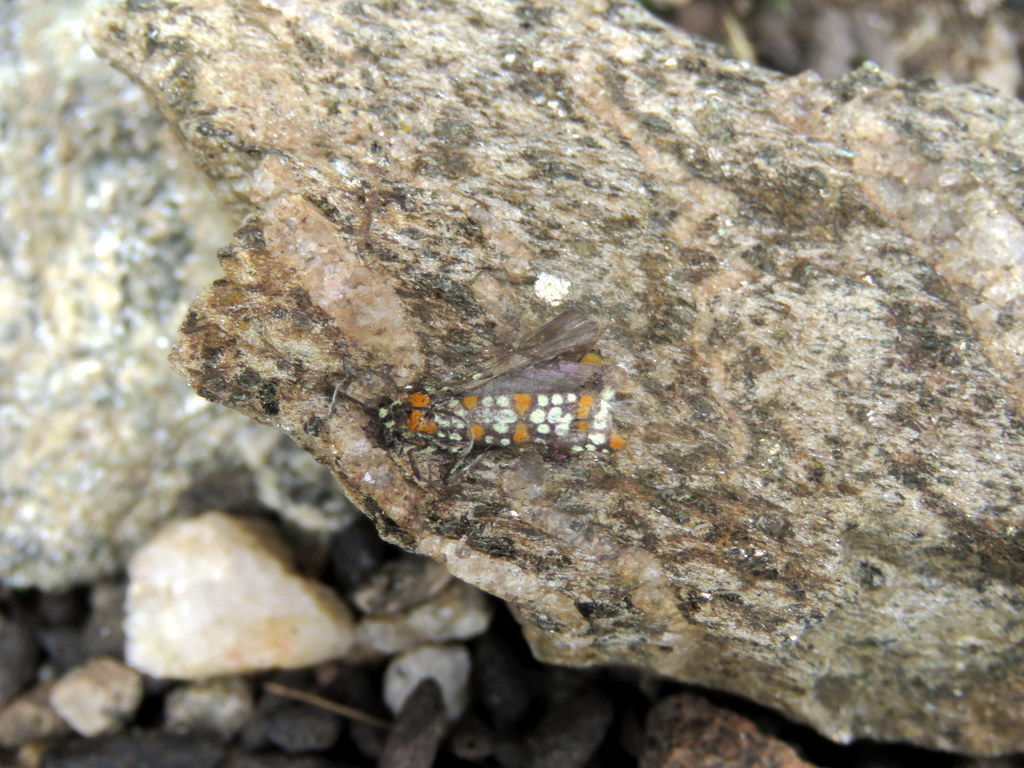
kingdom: Animalia
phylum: Arthropoda
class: Insecta
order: Lepidoptera
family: Attevidae
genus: Atteva
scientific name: Atteva punctella
